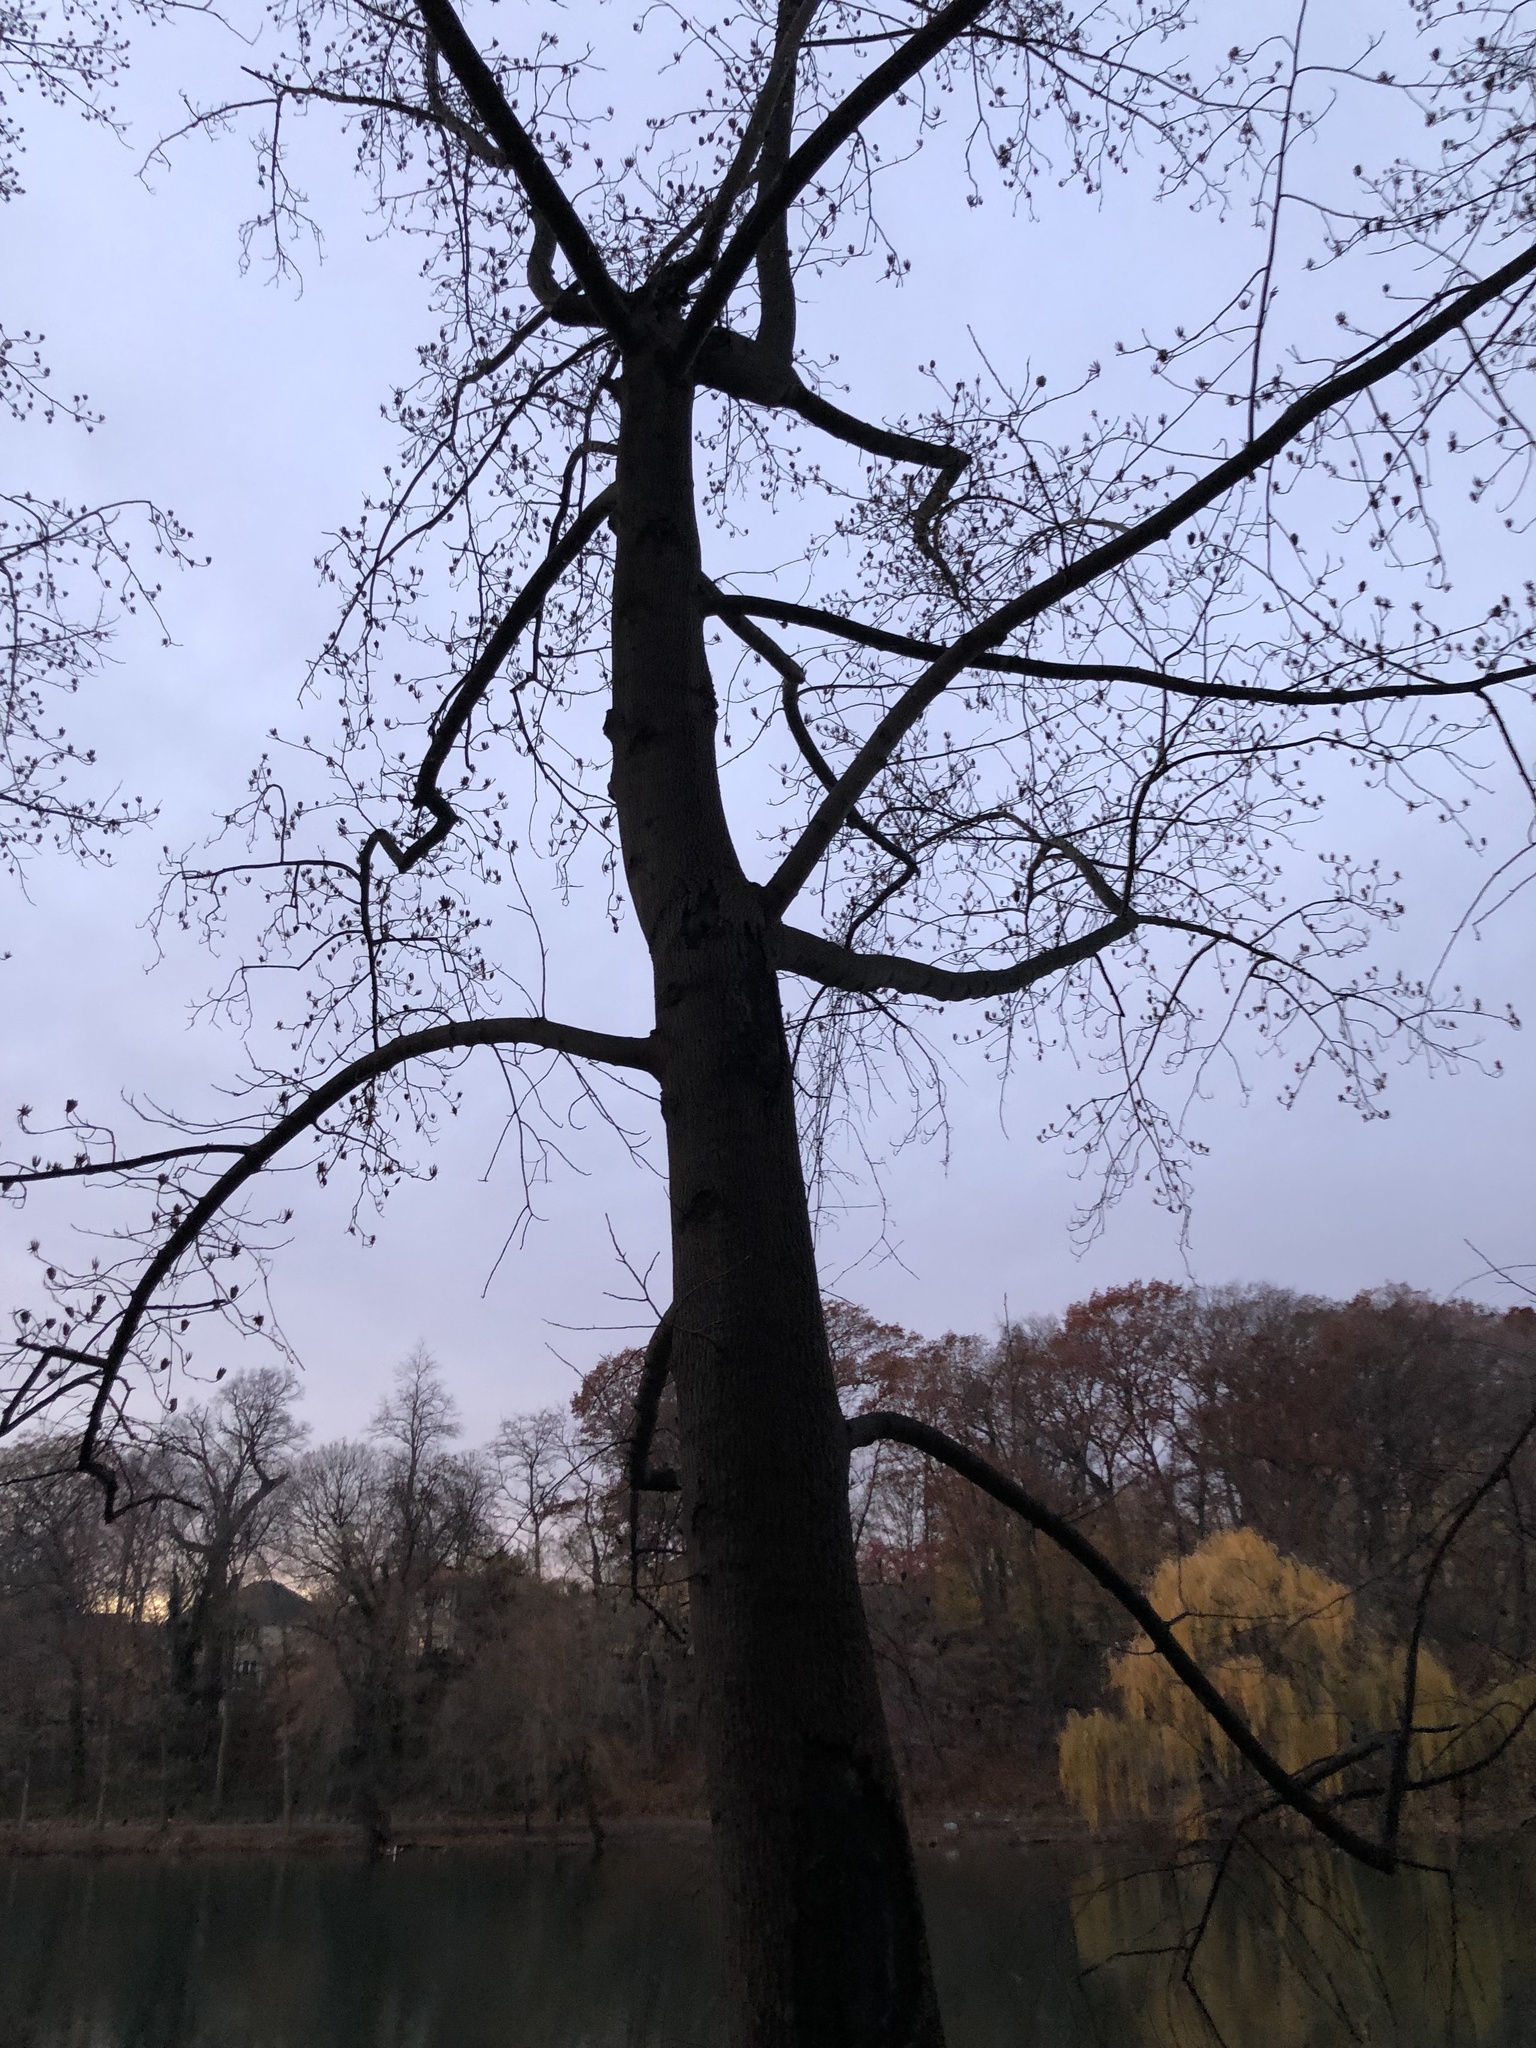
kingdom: Plantae
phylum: Tracheophyta
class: Magnoliopsida
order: Magnoliales
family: Magnoliaceae
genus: Liriodendron
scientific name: Liriodendron tulipifera
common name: Tulip tree
